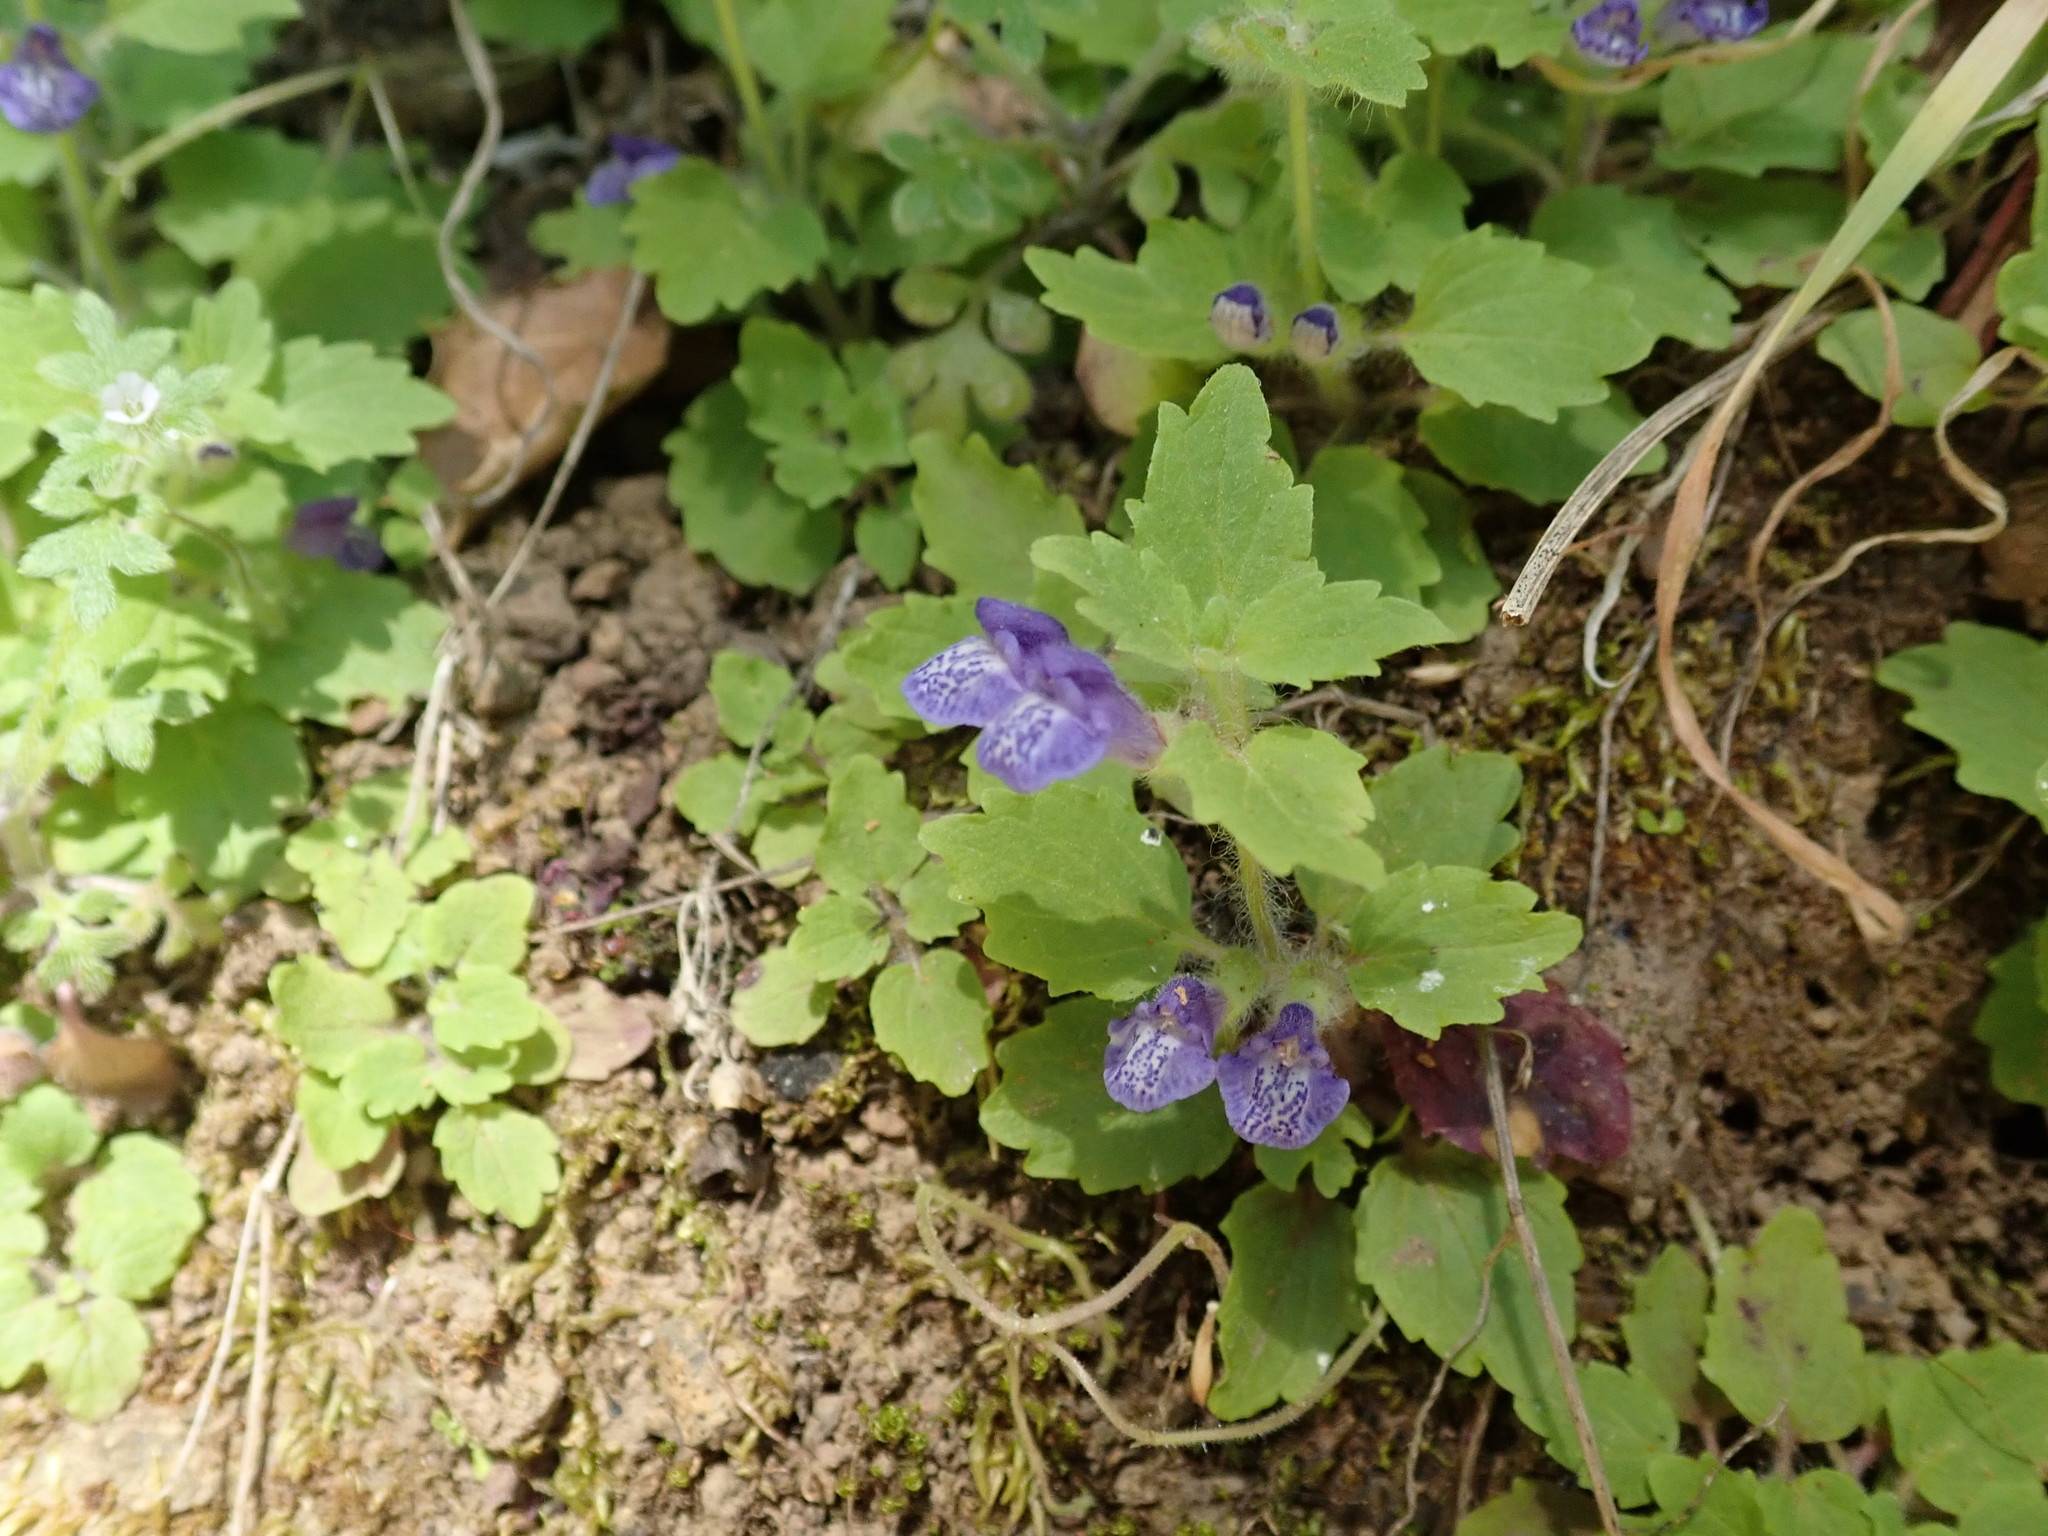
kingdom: Plantae
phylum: Tracheophyta
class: Magnoliopsida
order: Lamiales
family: Lamiaceae
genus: Scutellaria
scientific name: Scutellaria tuberosa
